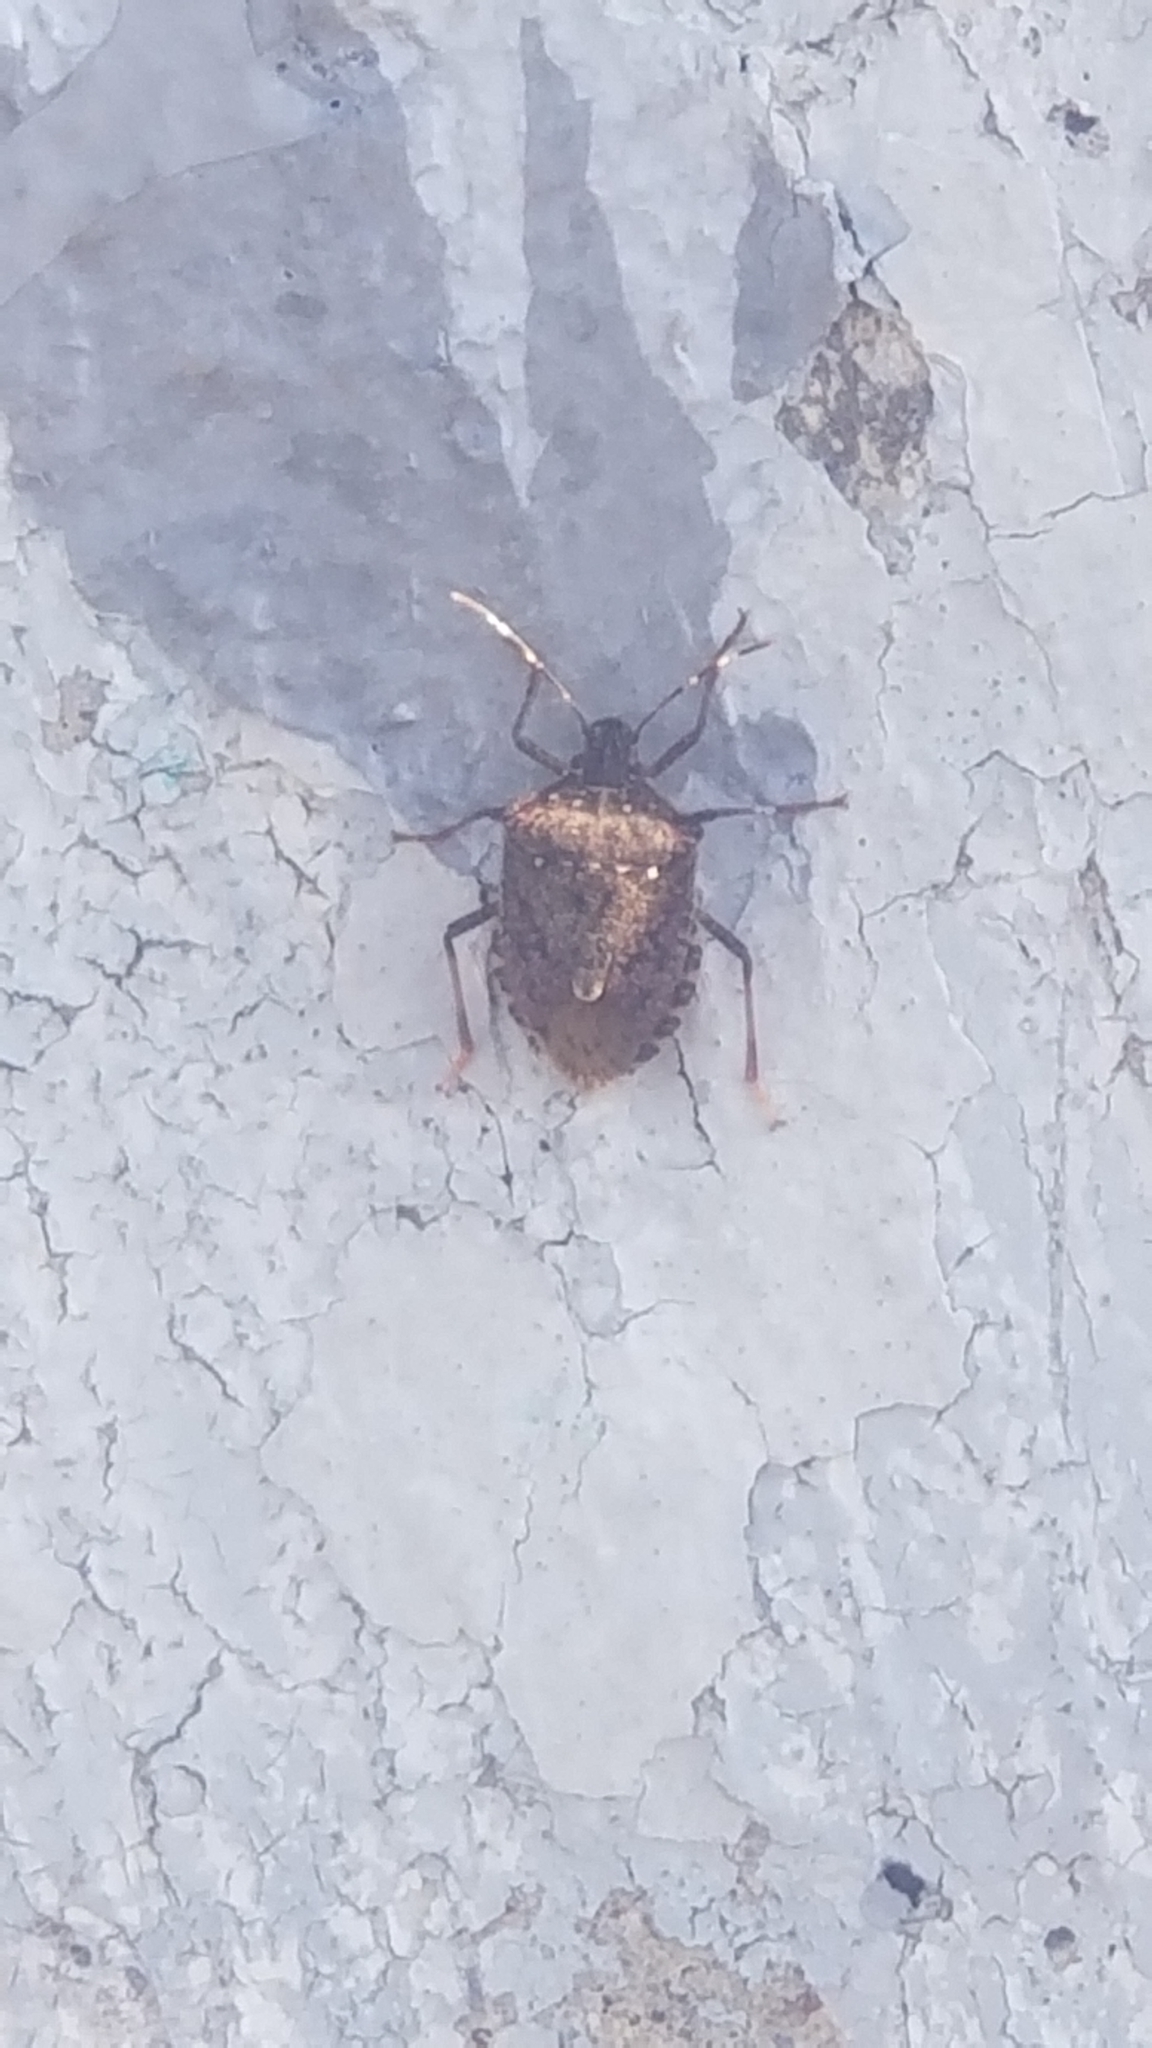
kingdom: Animalia
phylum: Arthropoda
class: Insecta
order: Hemiptera
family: Pentatomidae
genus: Halyomorpha
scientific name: Halyomorpha halys
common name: Brown marmorated stink bug
